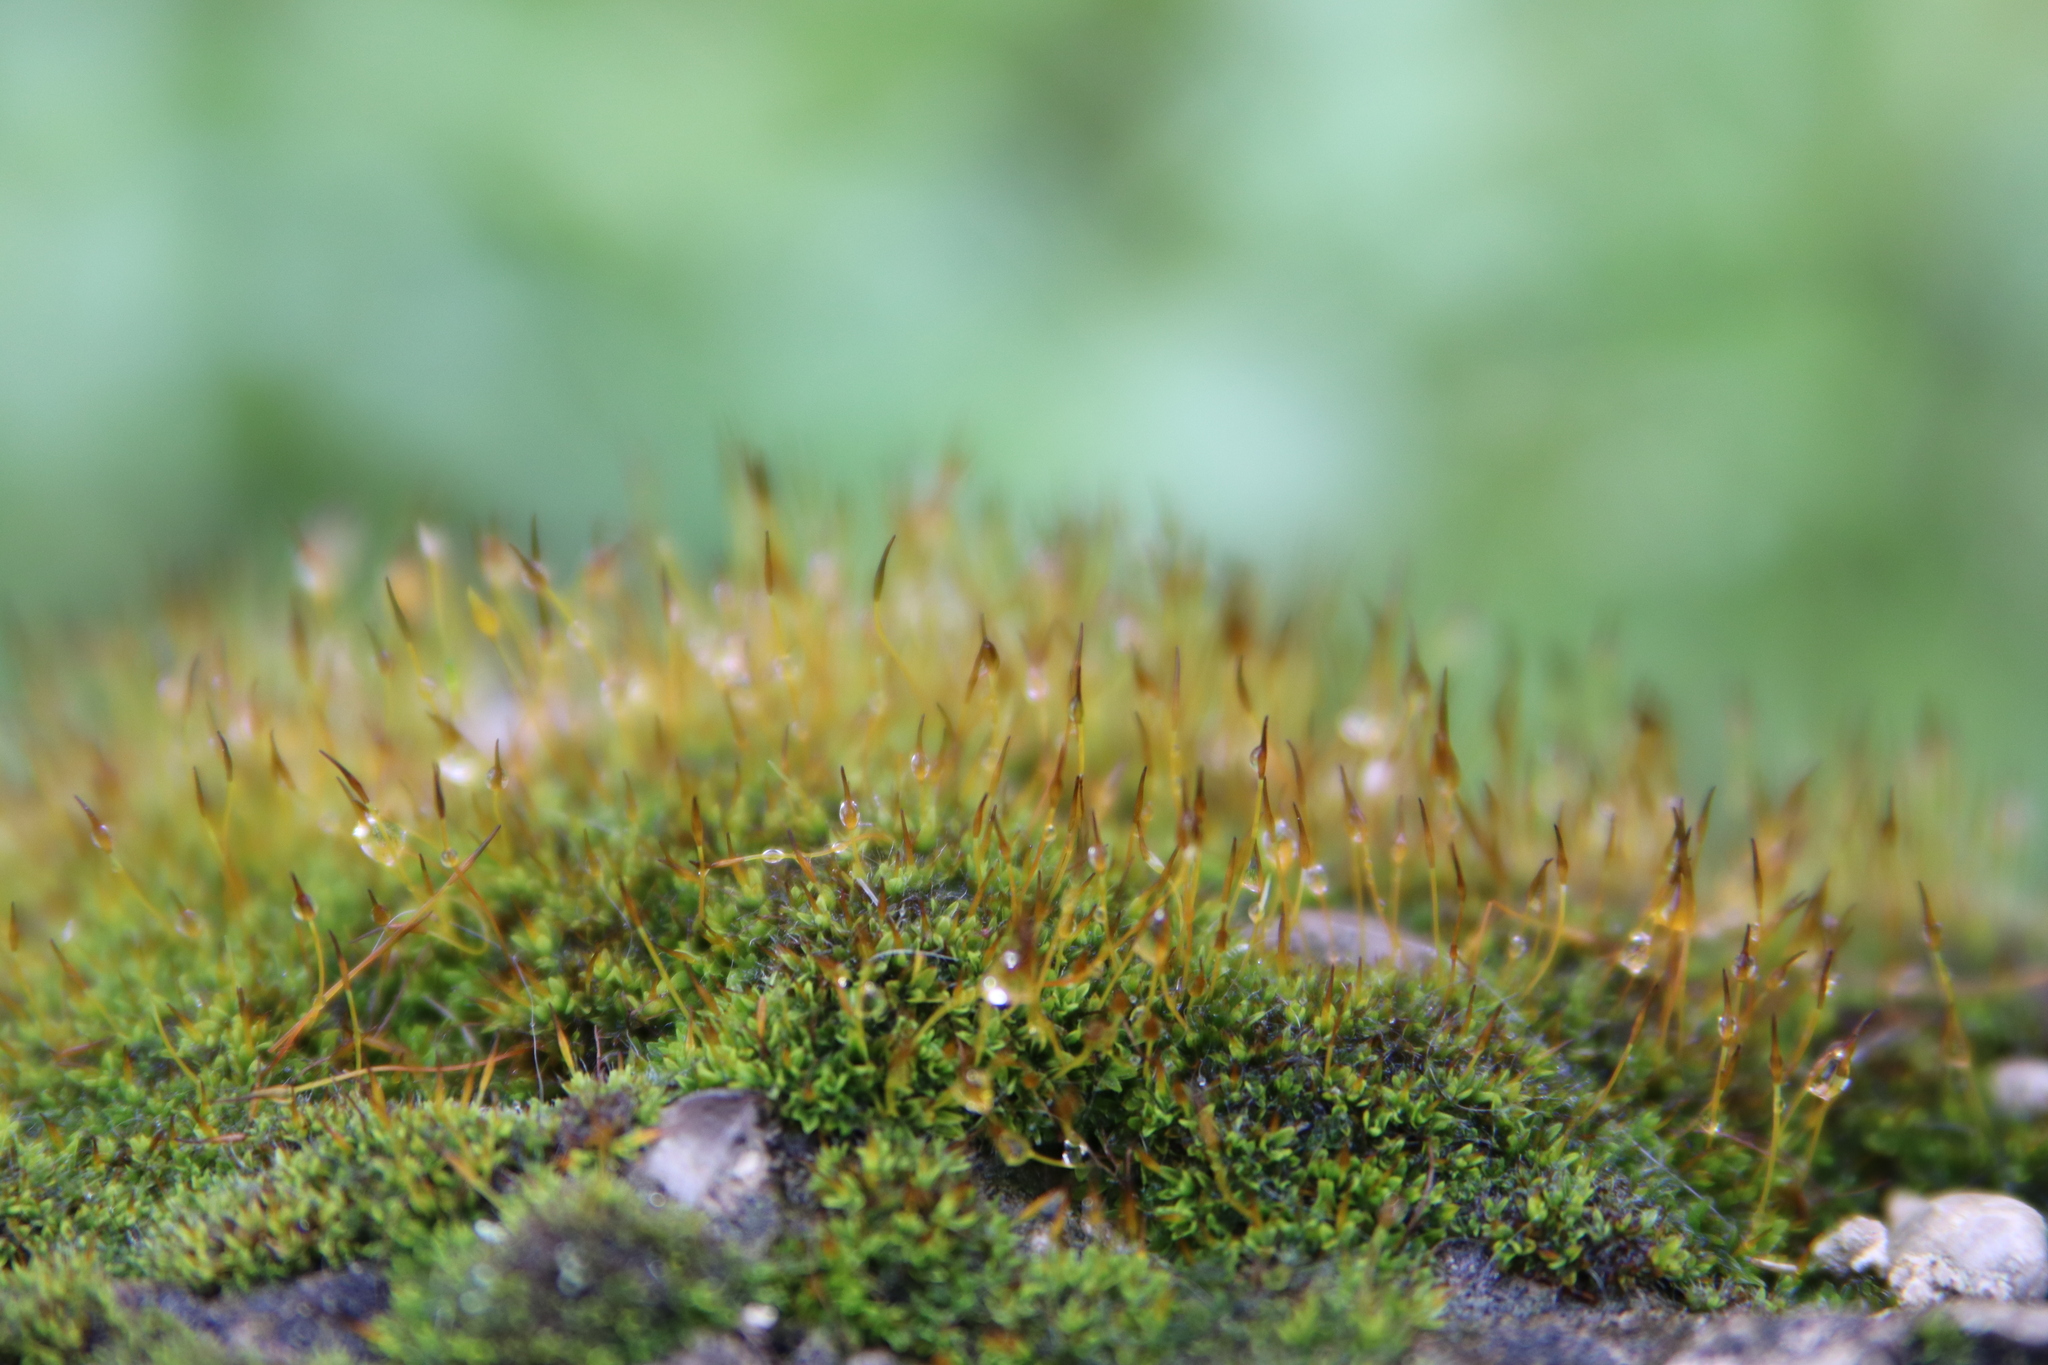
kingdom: Plantae
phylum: Bryophyta
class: Bryopsida
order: Pottiales
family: Pottiaceae
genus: Tortula
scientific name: Tortula muralis
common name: Wall screw-moss
